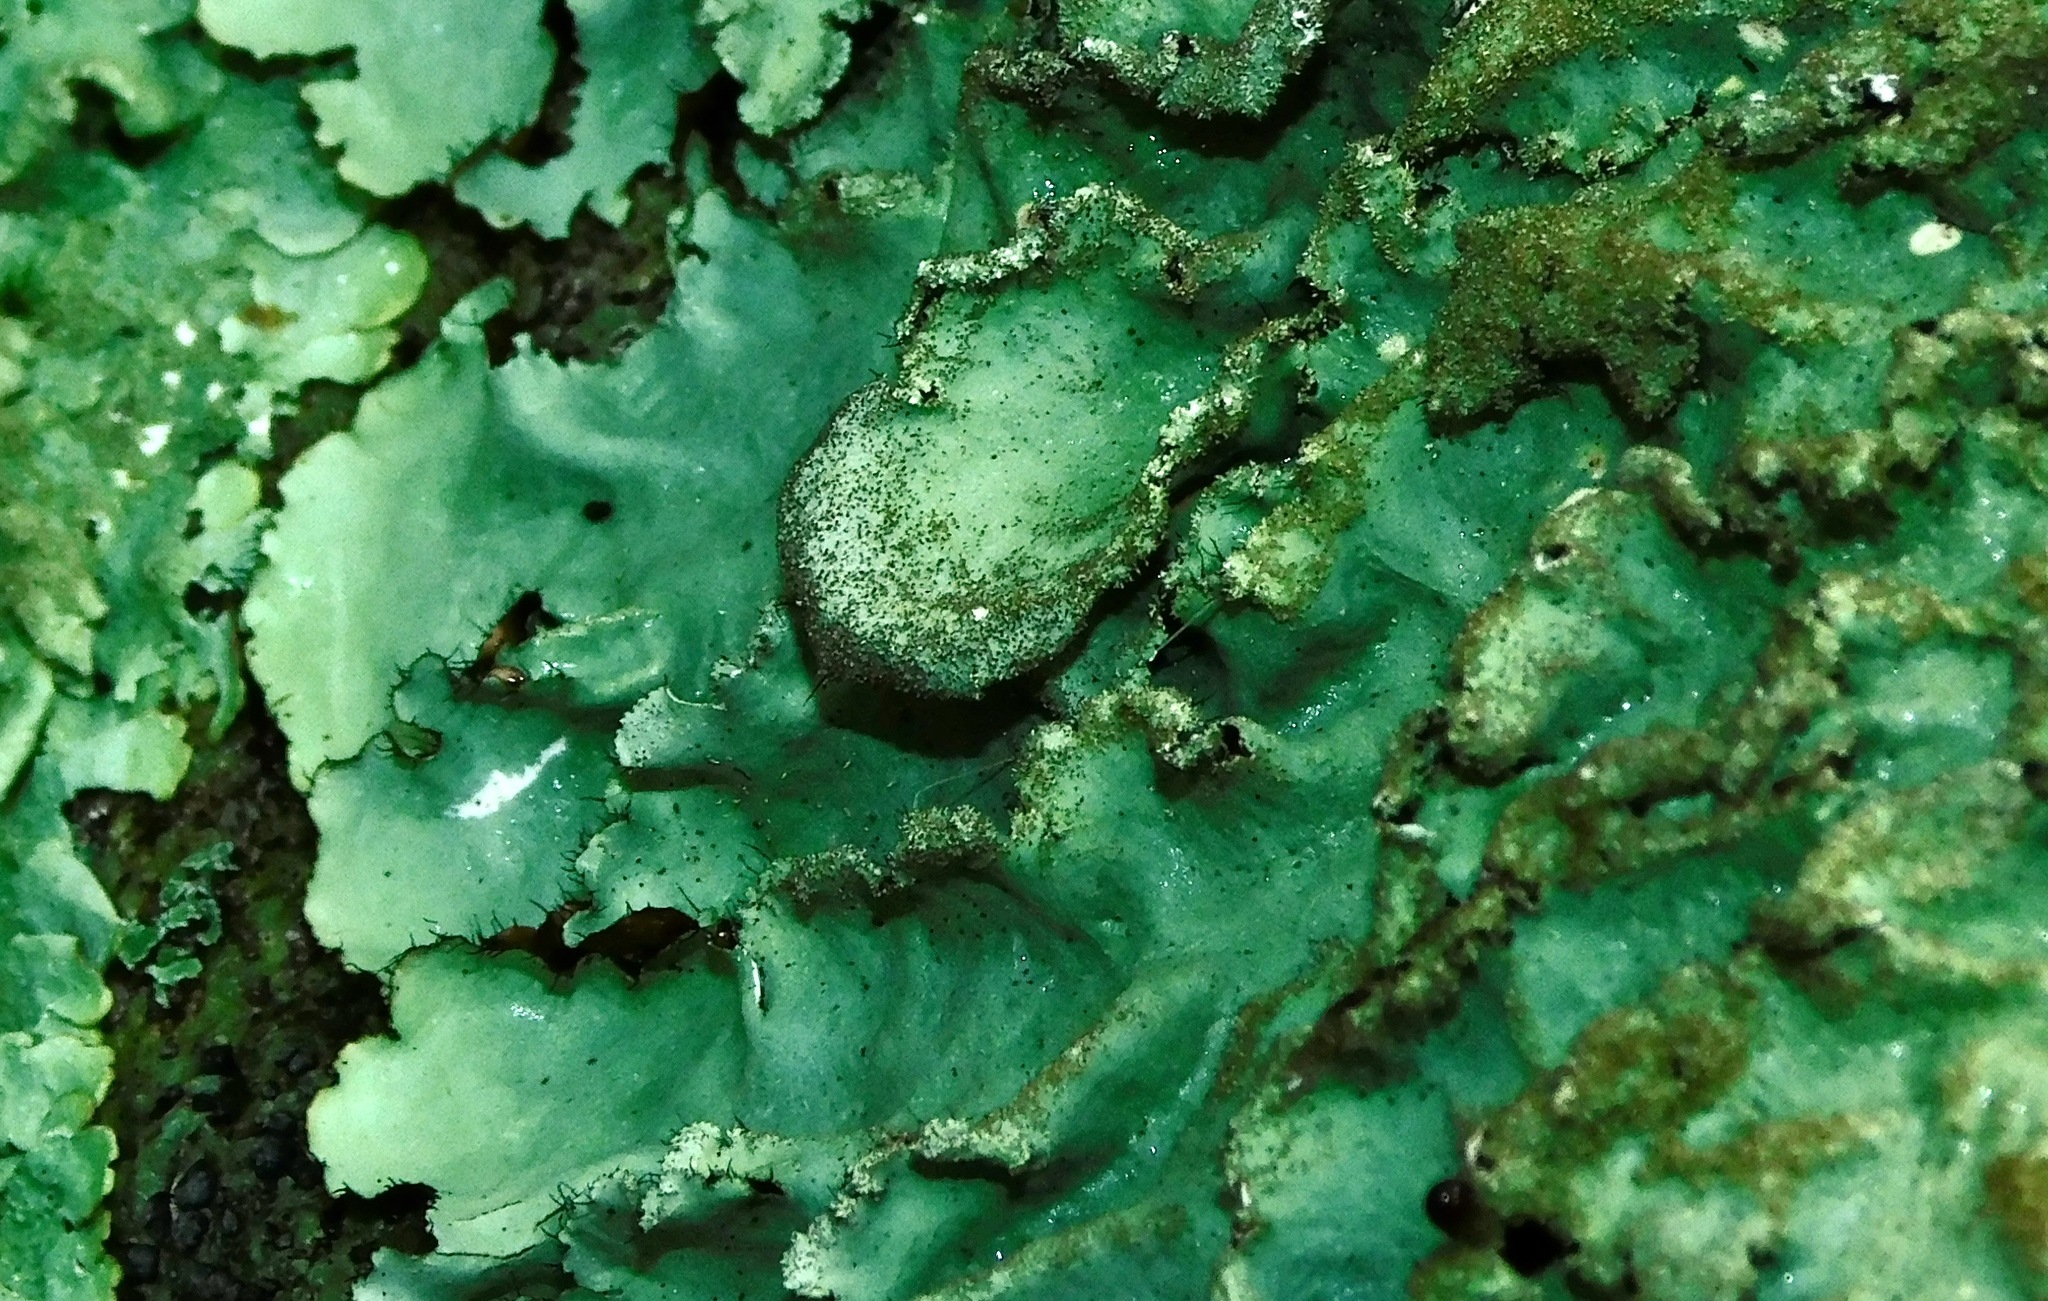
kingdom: Fungi
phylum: Ascomycota
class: Lecanoromycetes
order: Lecanorales
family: Parmeliaceae
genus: Hypotrachyna
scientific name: Hypotrachyna horrescens
